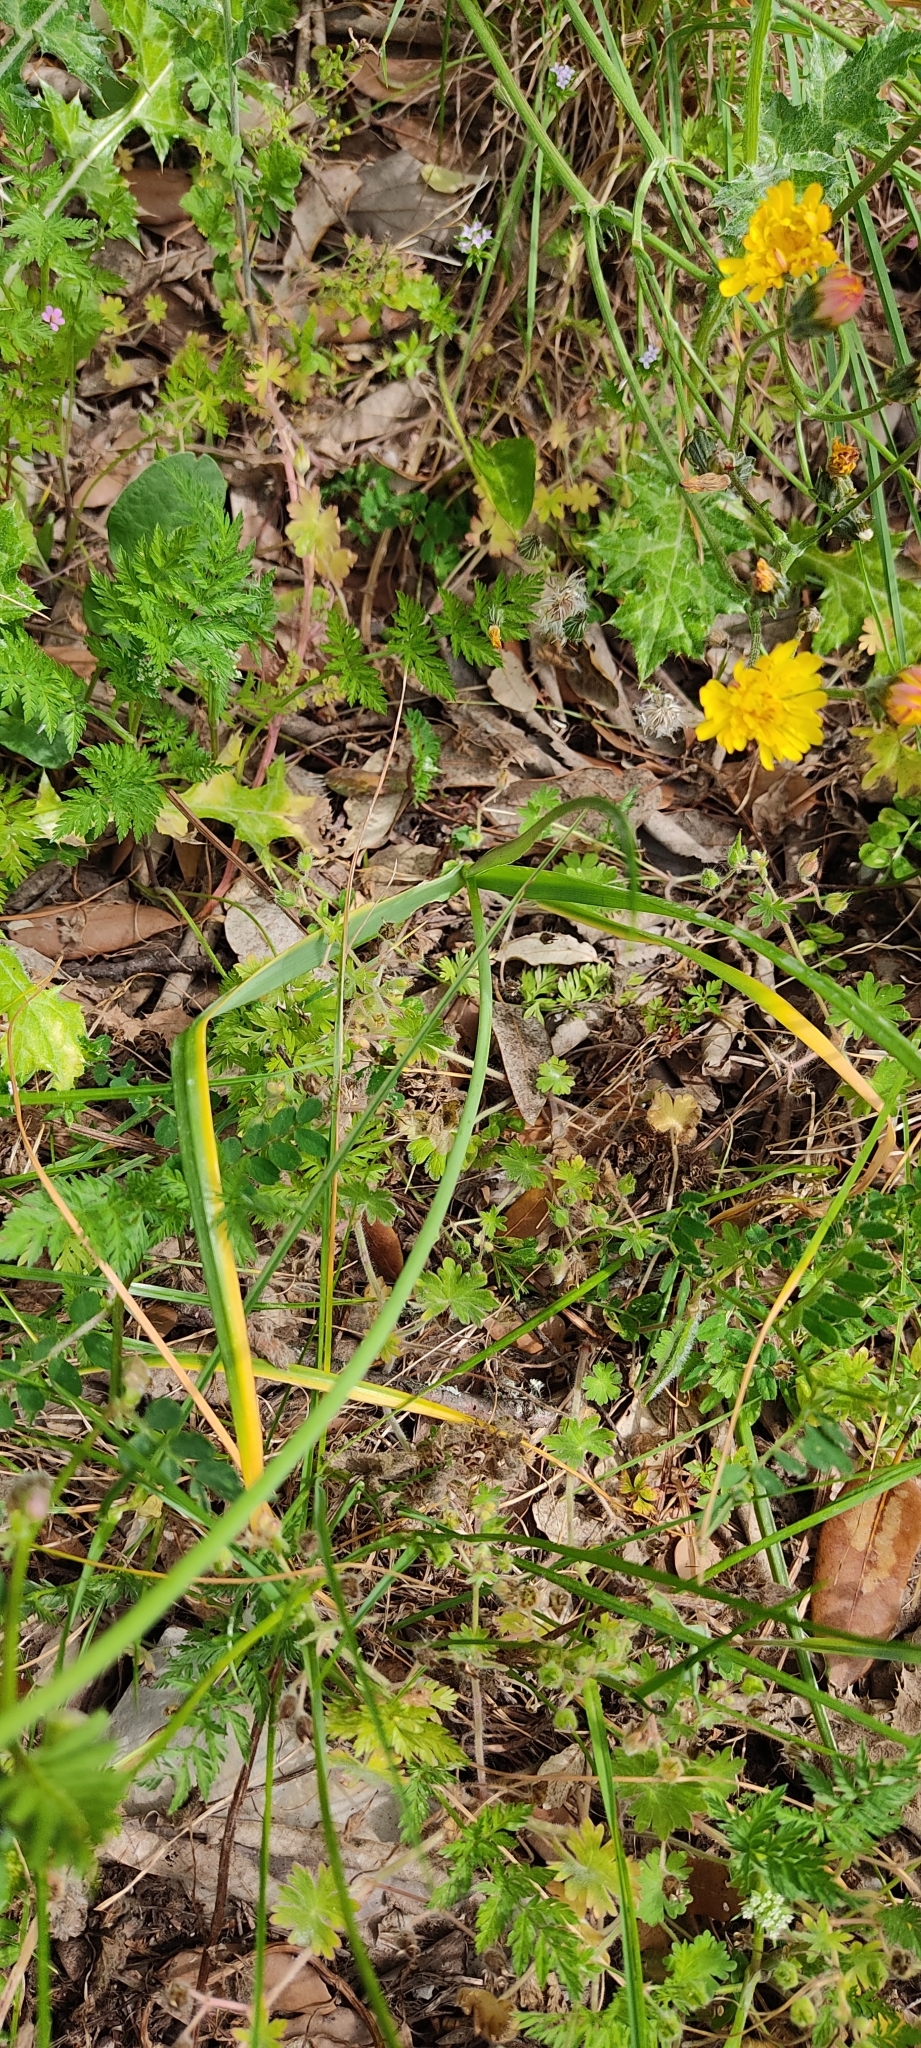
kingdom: Plantae
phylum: Tracheophyta
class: Liliopsida
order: Asparagales
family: Amaryllidaceae
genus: Allium
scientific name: Allium roseum
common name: Rosy garlic
